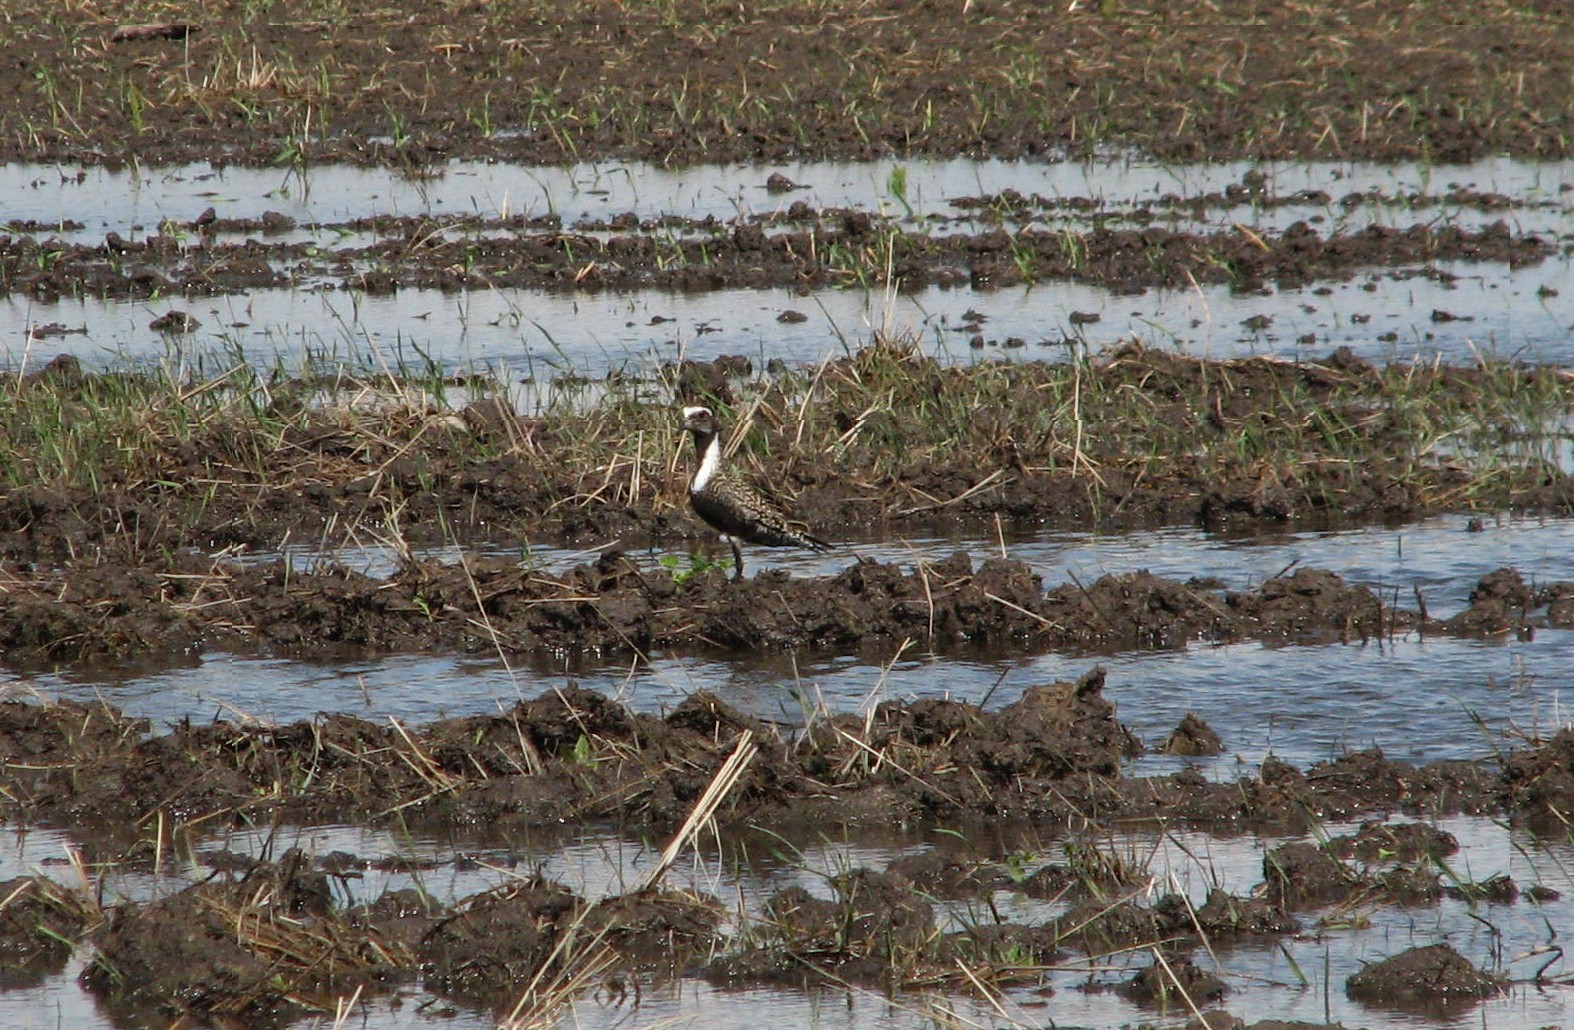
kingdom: Animalia
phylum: Chordata
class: Aves
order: Charadriiformes
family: Charadriidae
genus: Pluvialis
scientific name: Pluvialis dominica
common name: American golden plover
